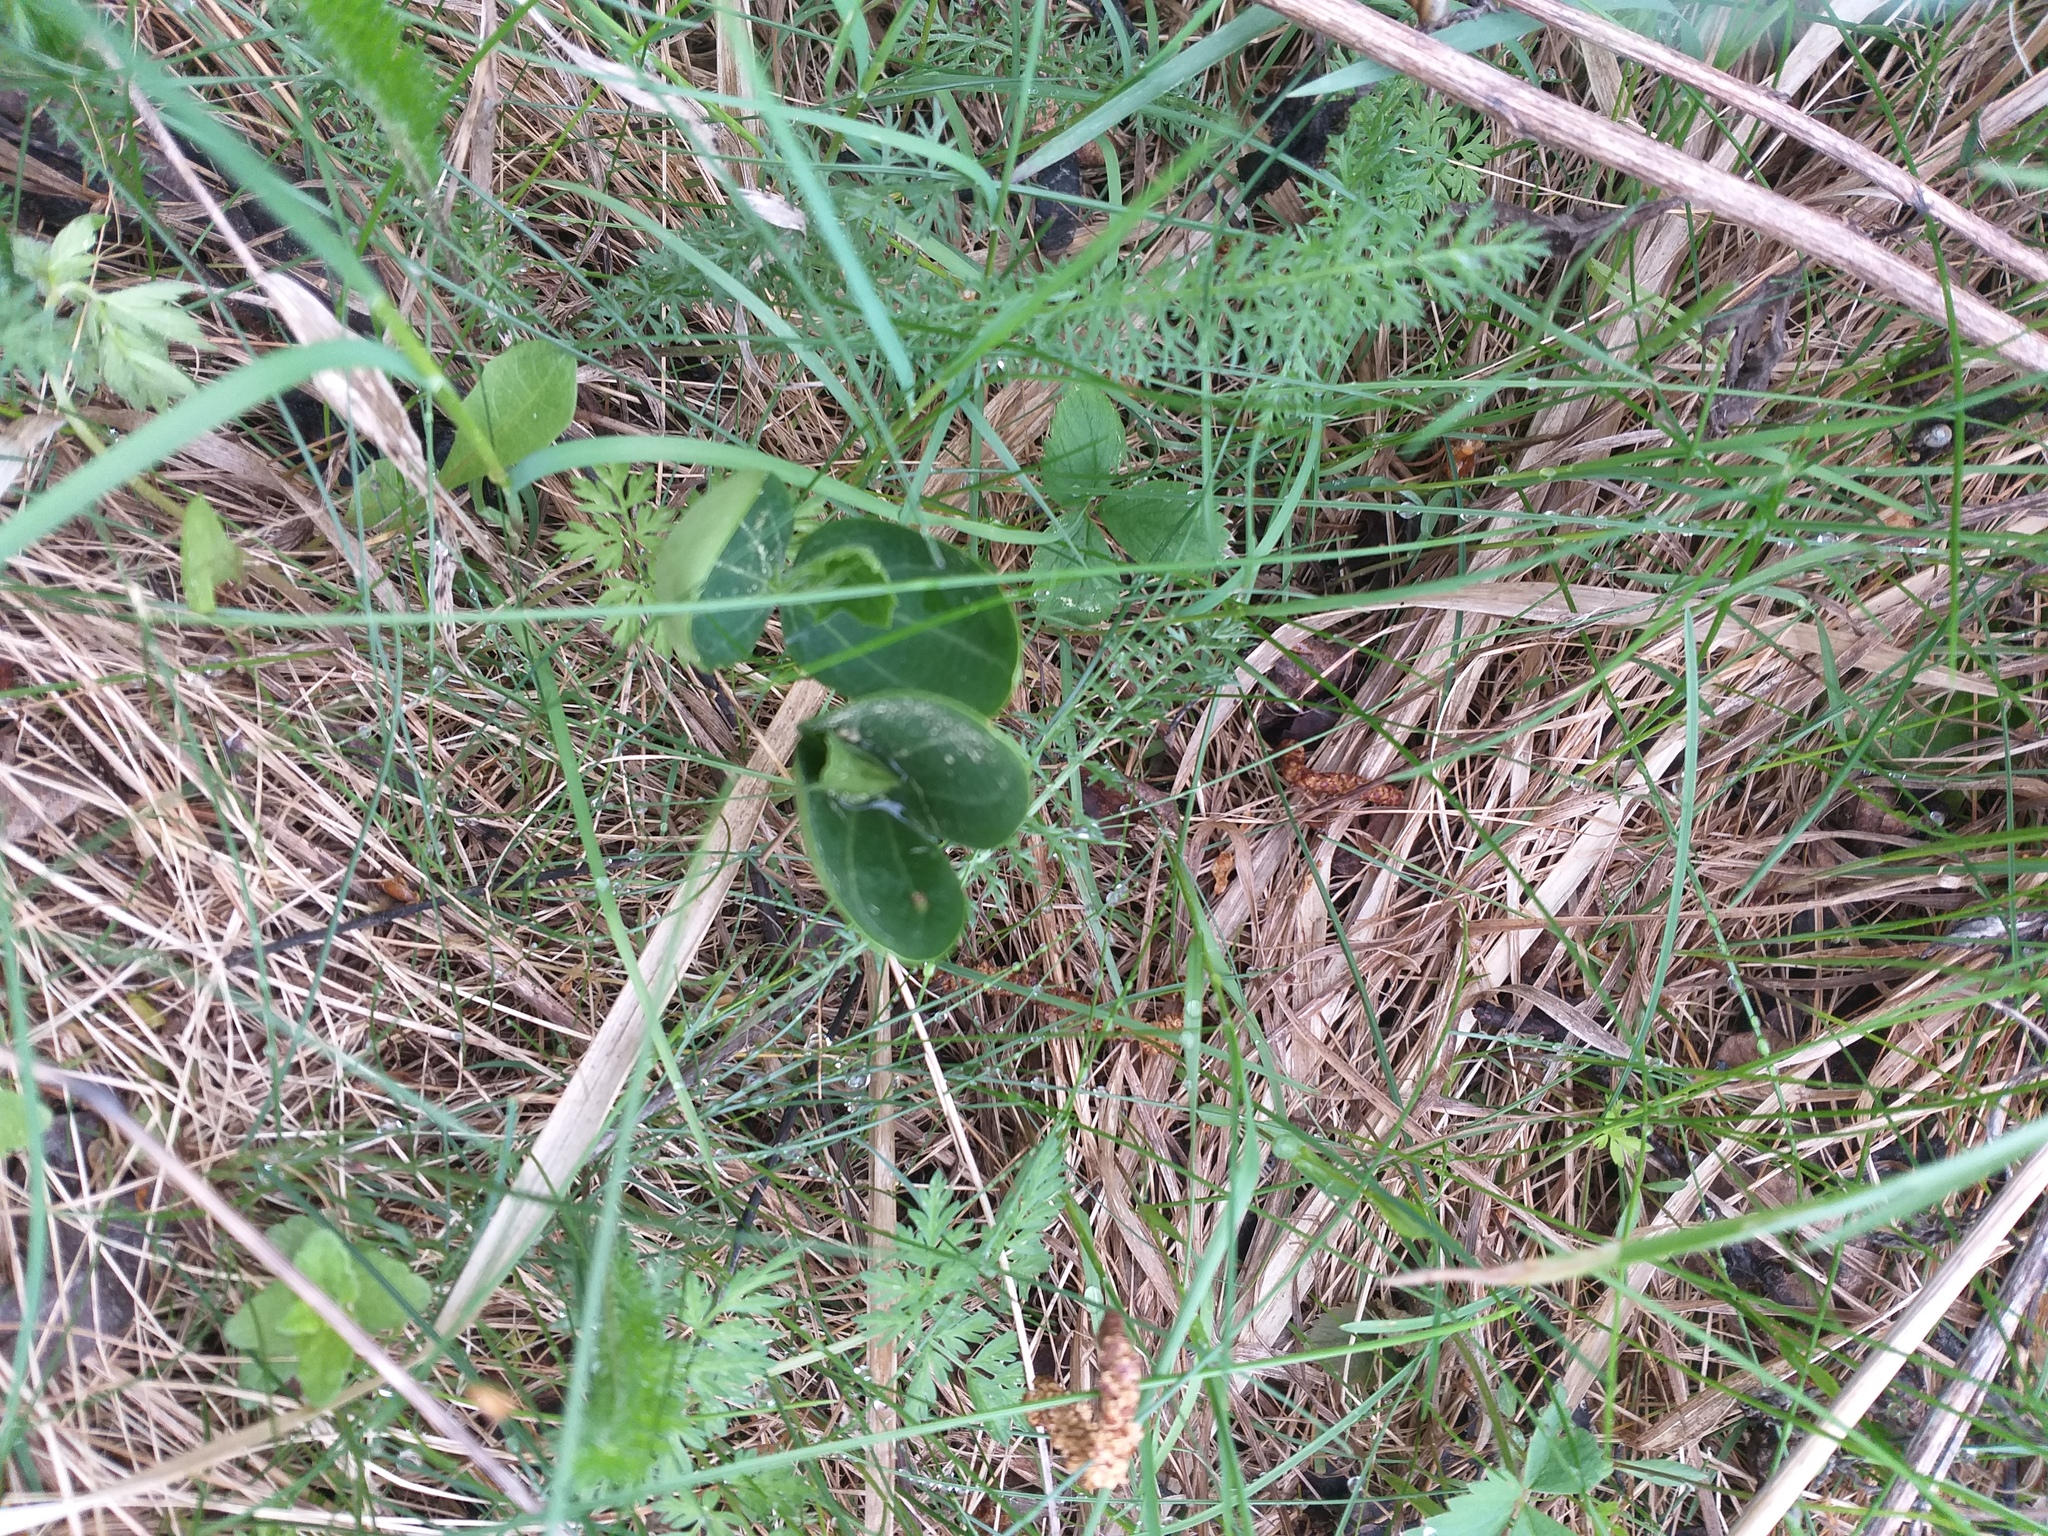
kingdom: Plantae
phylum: Tracheophyta
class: Magnoliopsida
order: Cucurbitales
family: Cucurbitaceae
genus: Echinocystis
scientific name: Echinocystis lobata
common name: Wild cucumber
